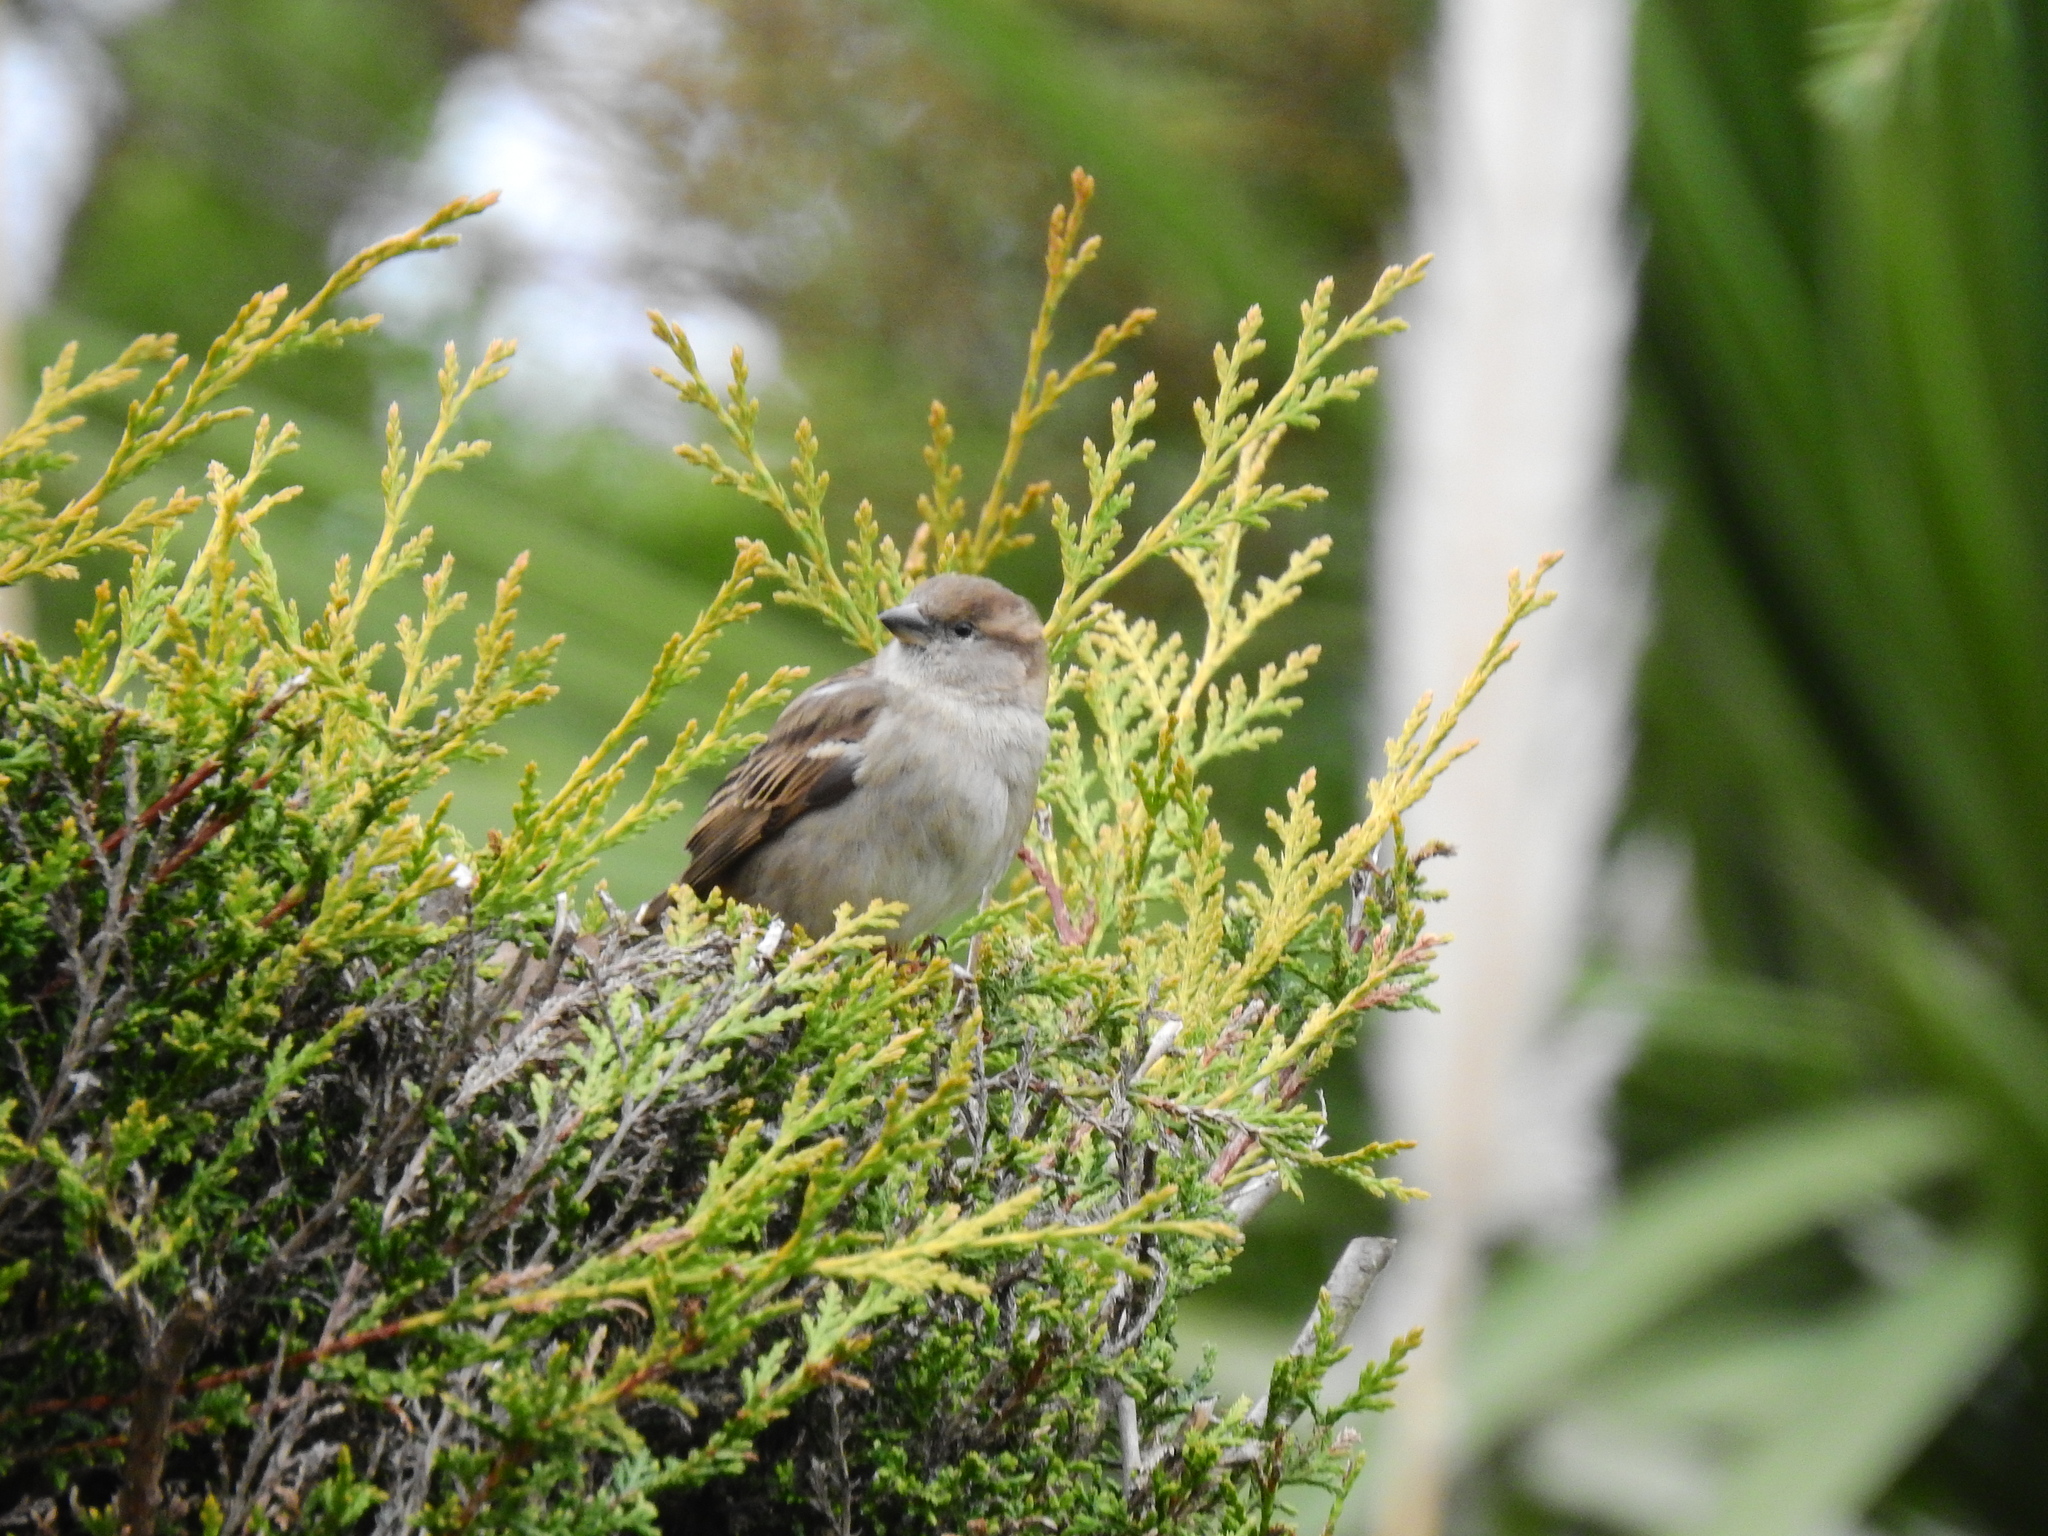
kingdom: Animalia
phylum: Chordata
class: Aves
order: Passeriformes
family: Passeridae
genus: Passer
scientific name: Passer domesticus
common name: House sparrow
